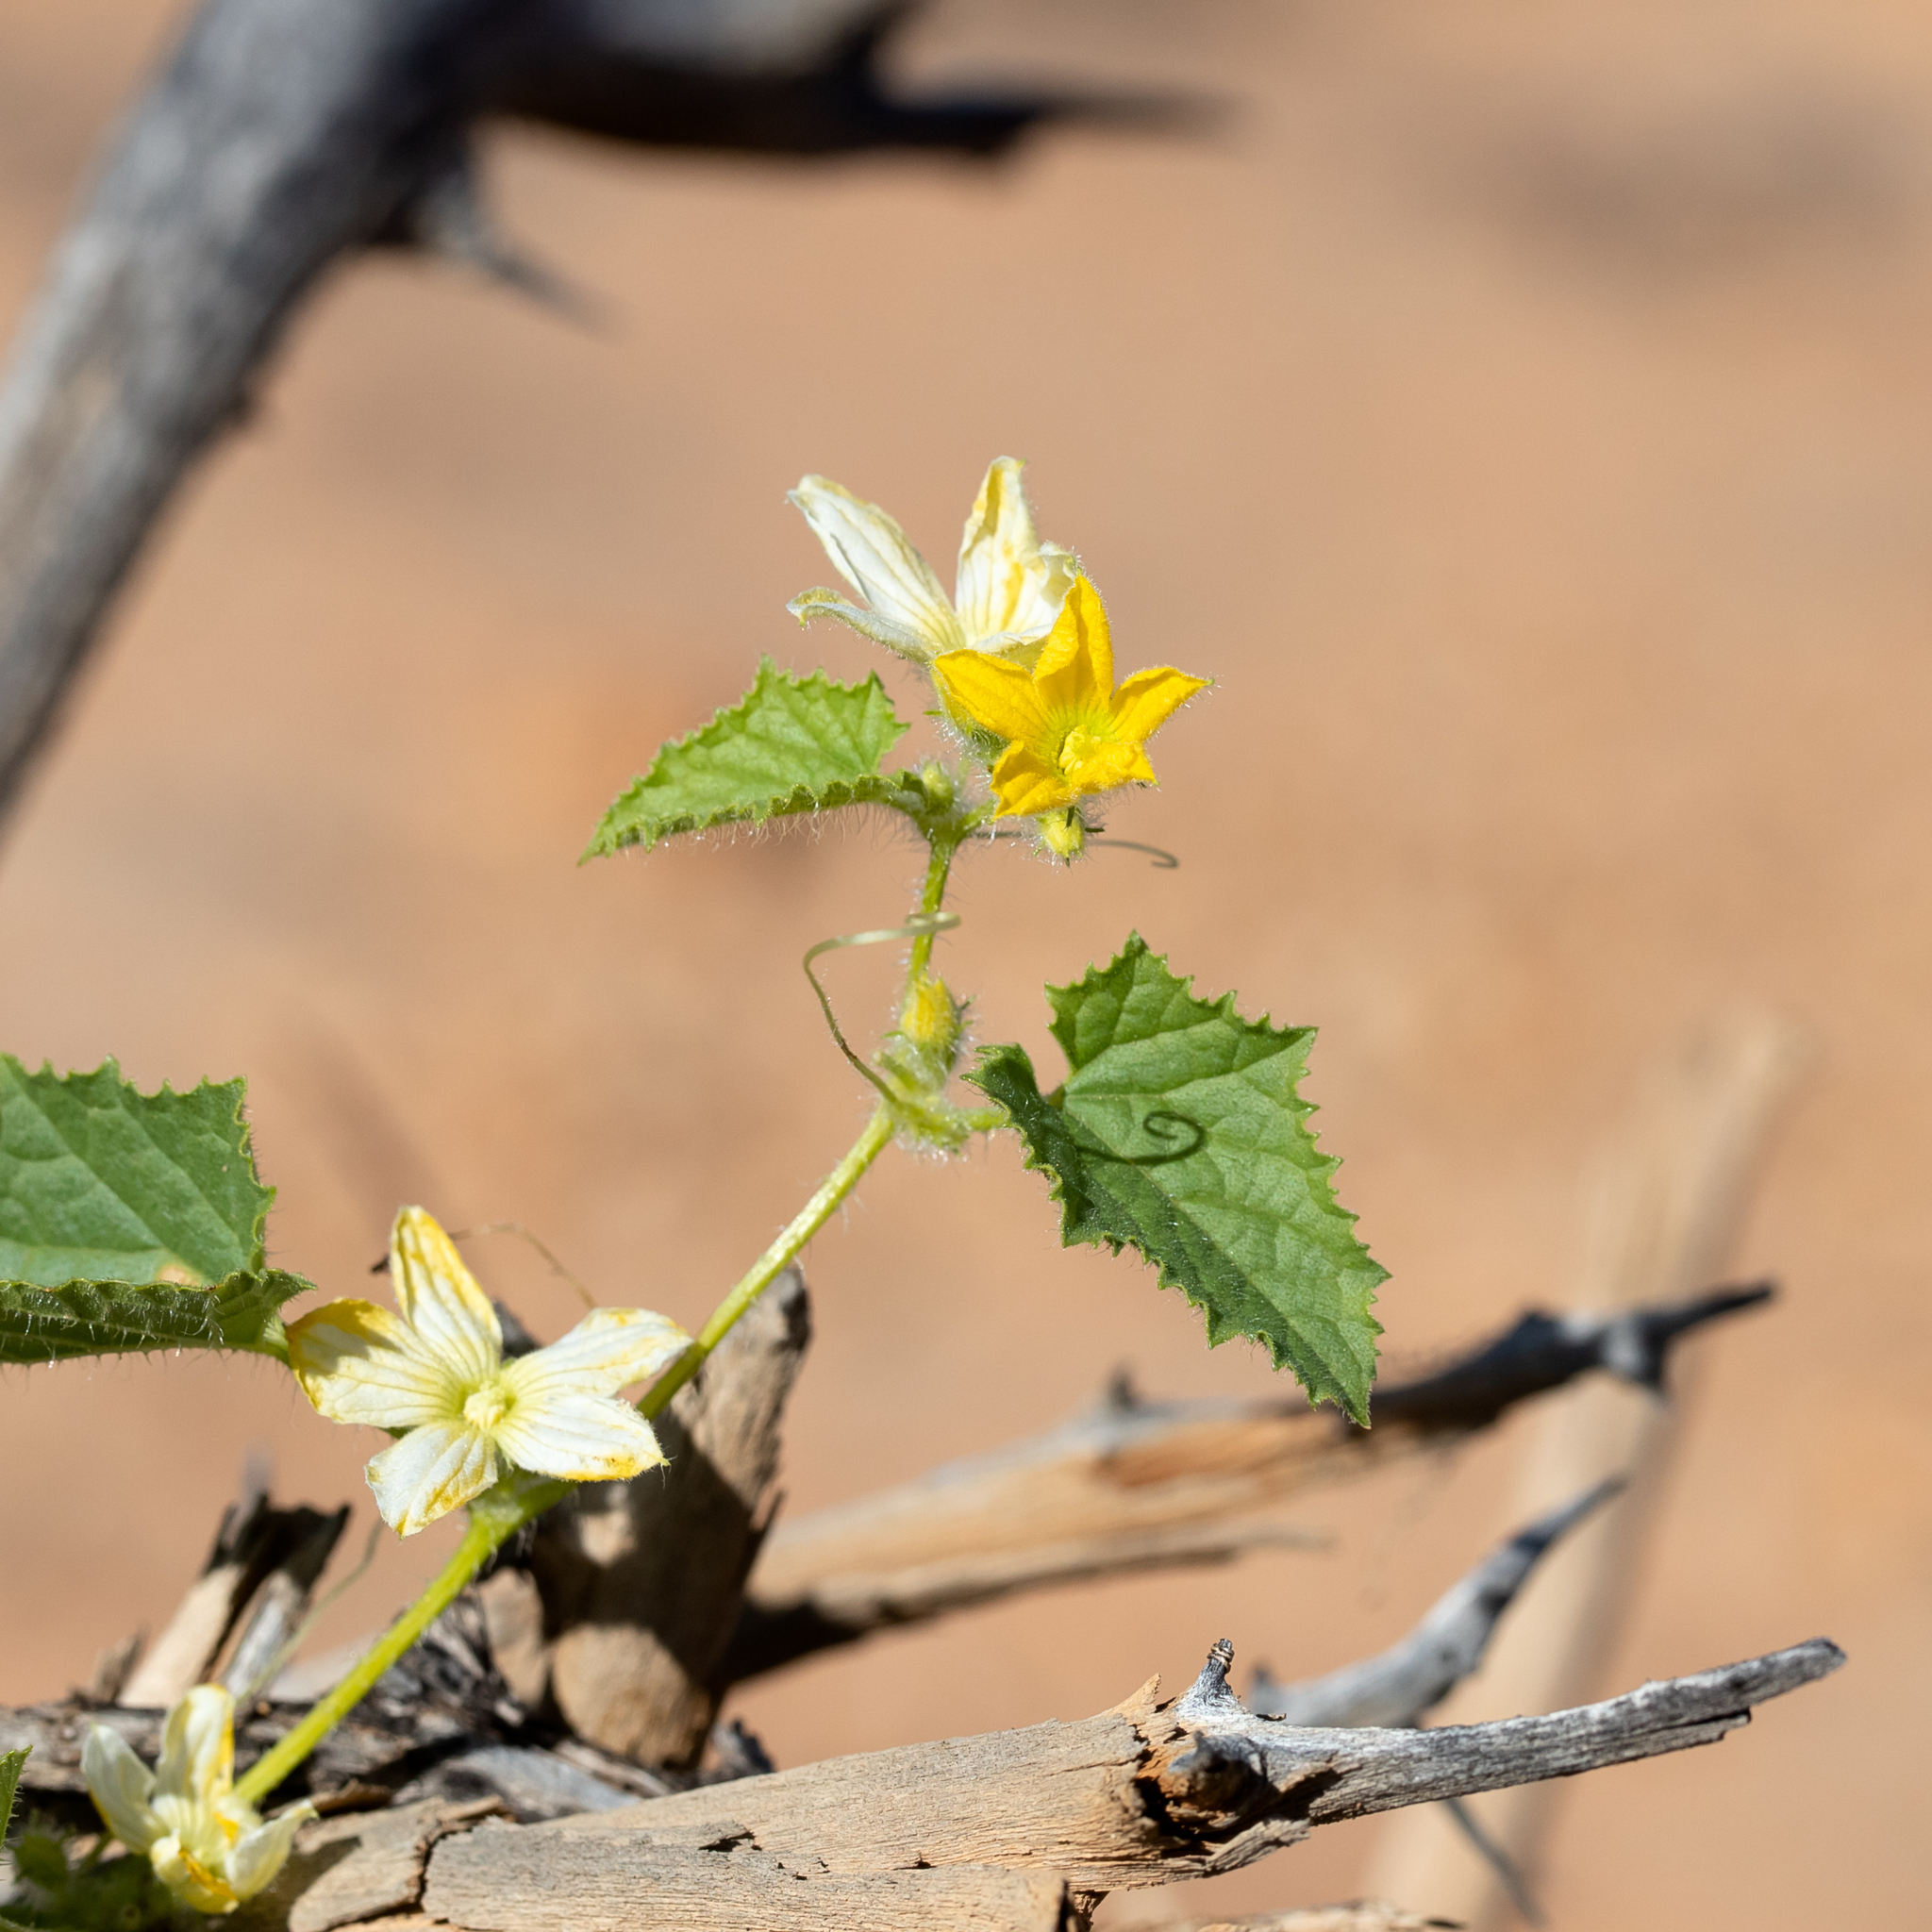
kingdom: Plantae
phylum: Tracheophyta
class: Magnoliopsida
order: Cucurbitales
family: Cucurbitaceae
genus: Cucumis
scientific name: Cucumis melo
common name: Melon
